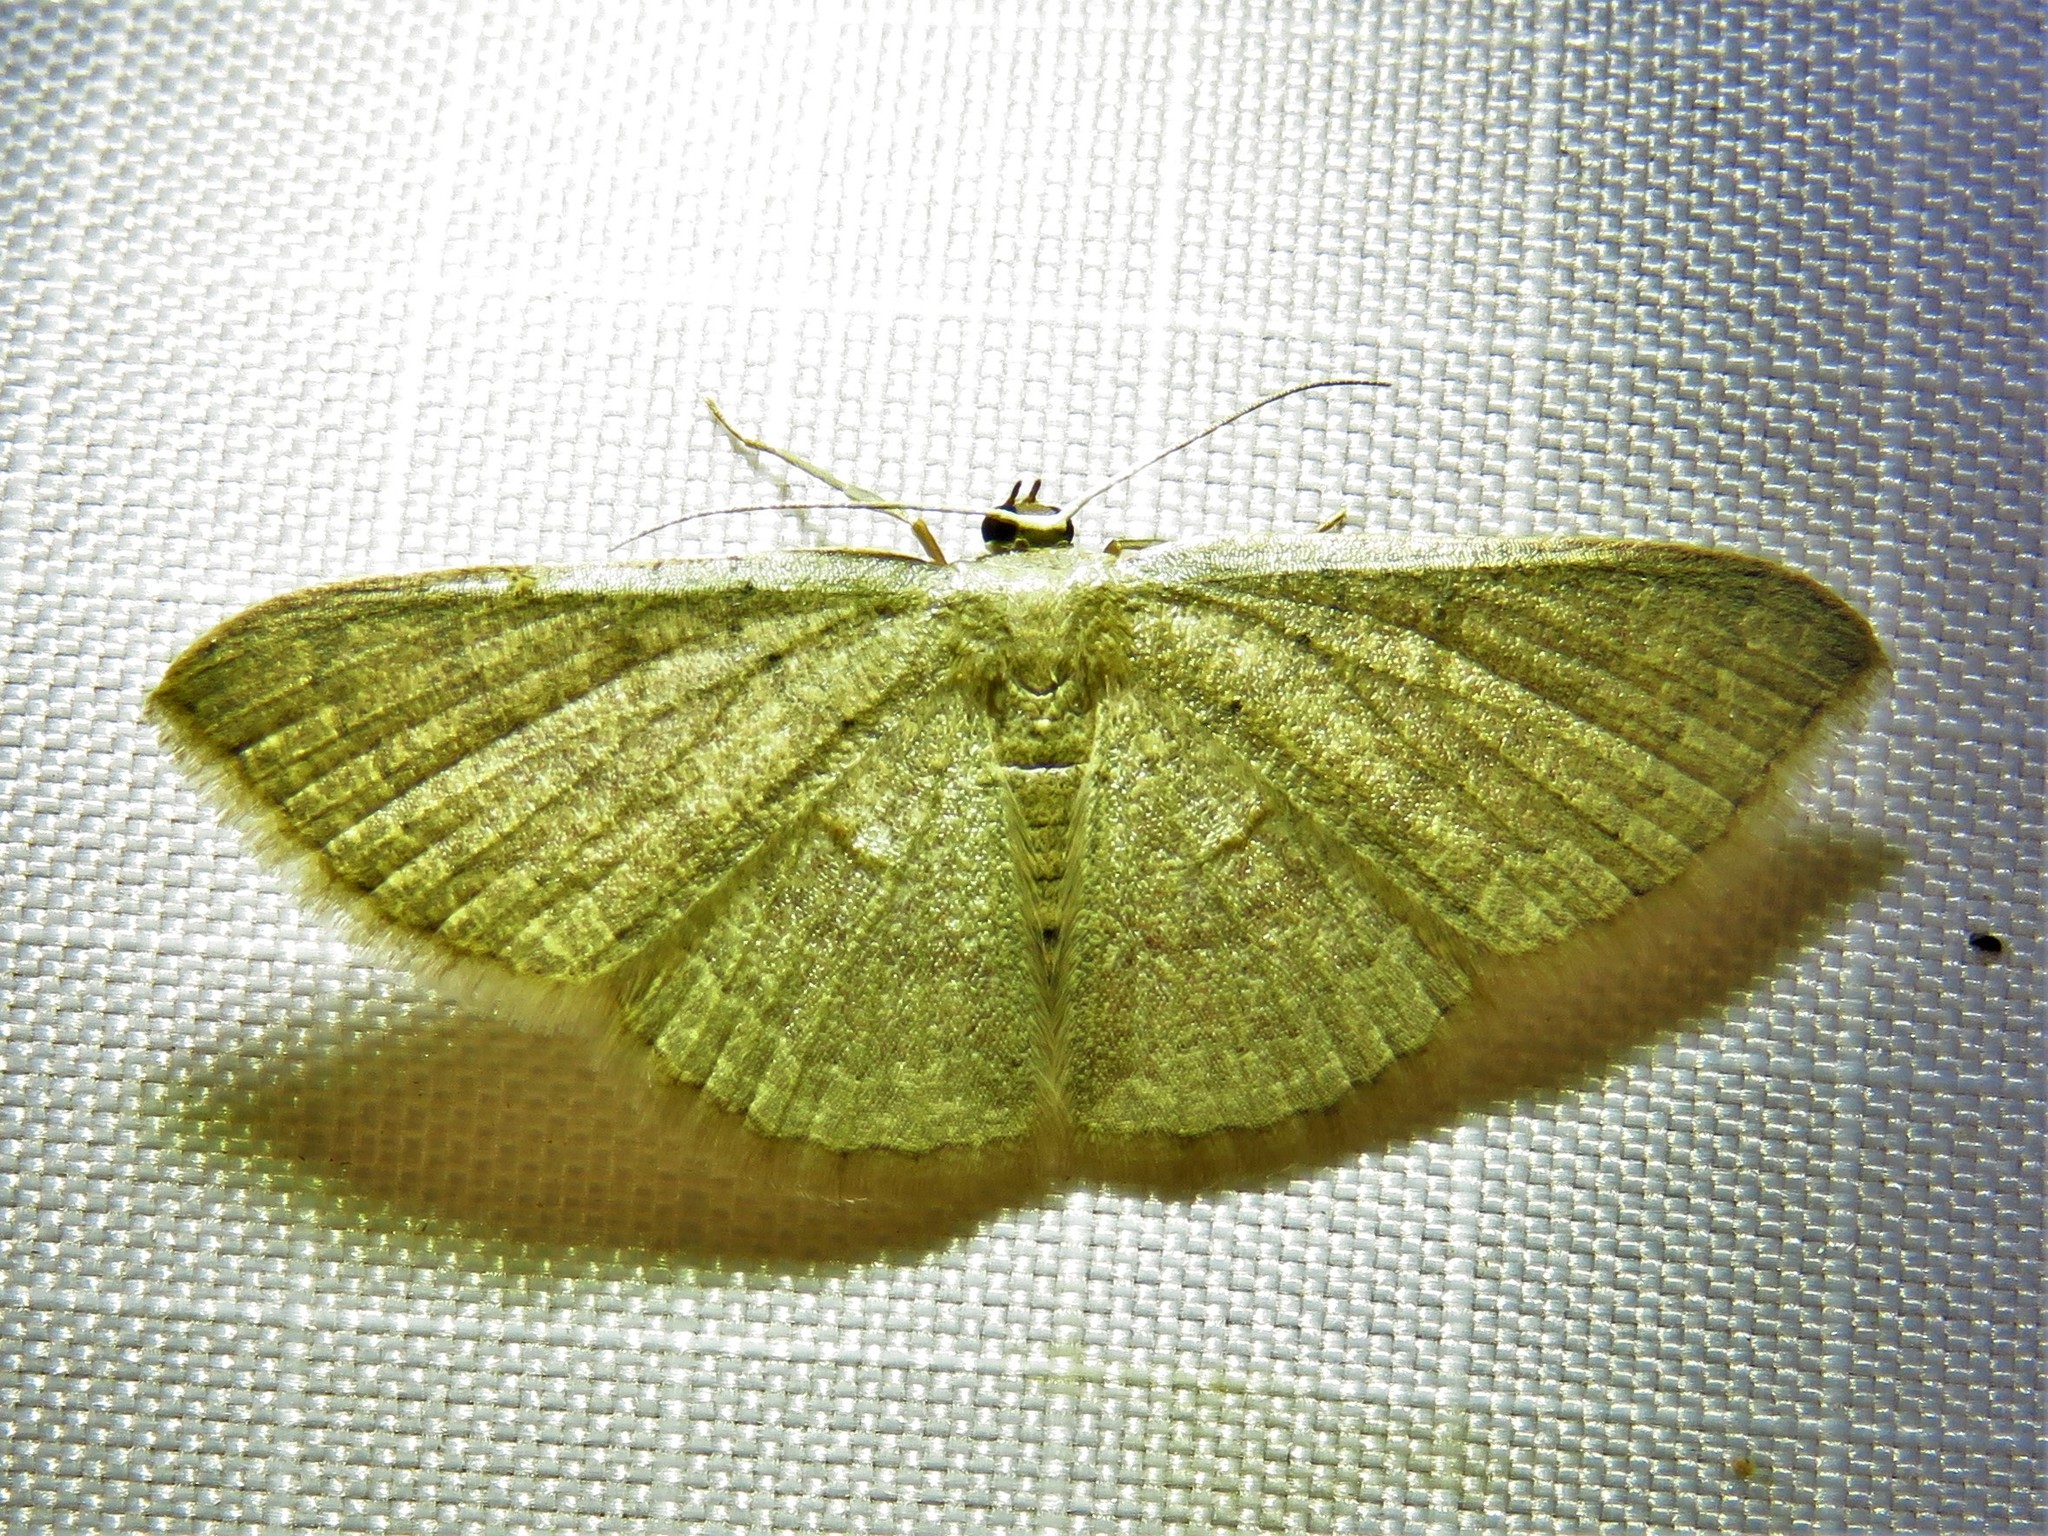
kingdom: Animalia
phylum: Arthropoda
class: Insecta
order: Lepidoptera
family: Geometridae
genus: Pleuroprucha
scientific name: Pleuroprucha insulsaria
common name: Common tan wave
